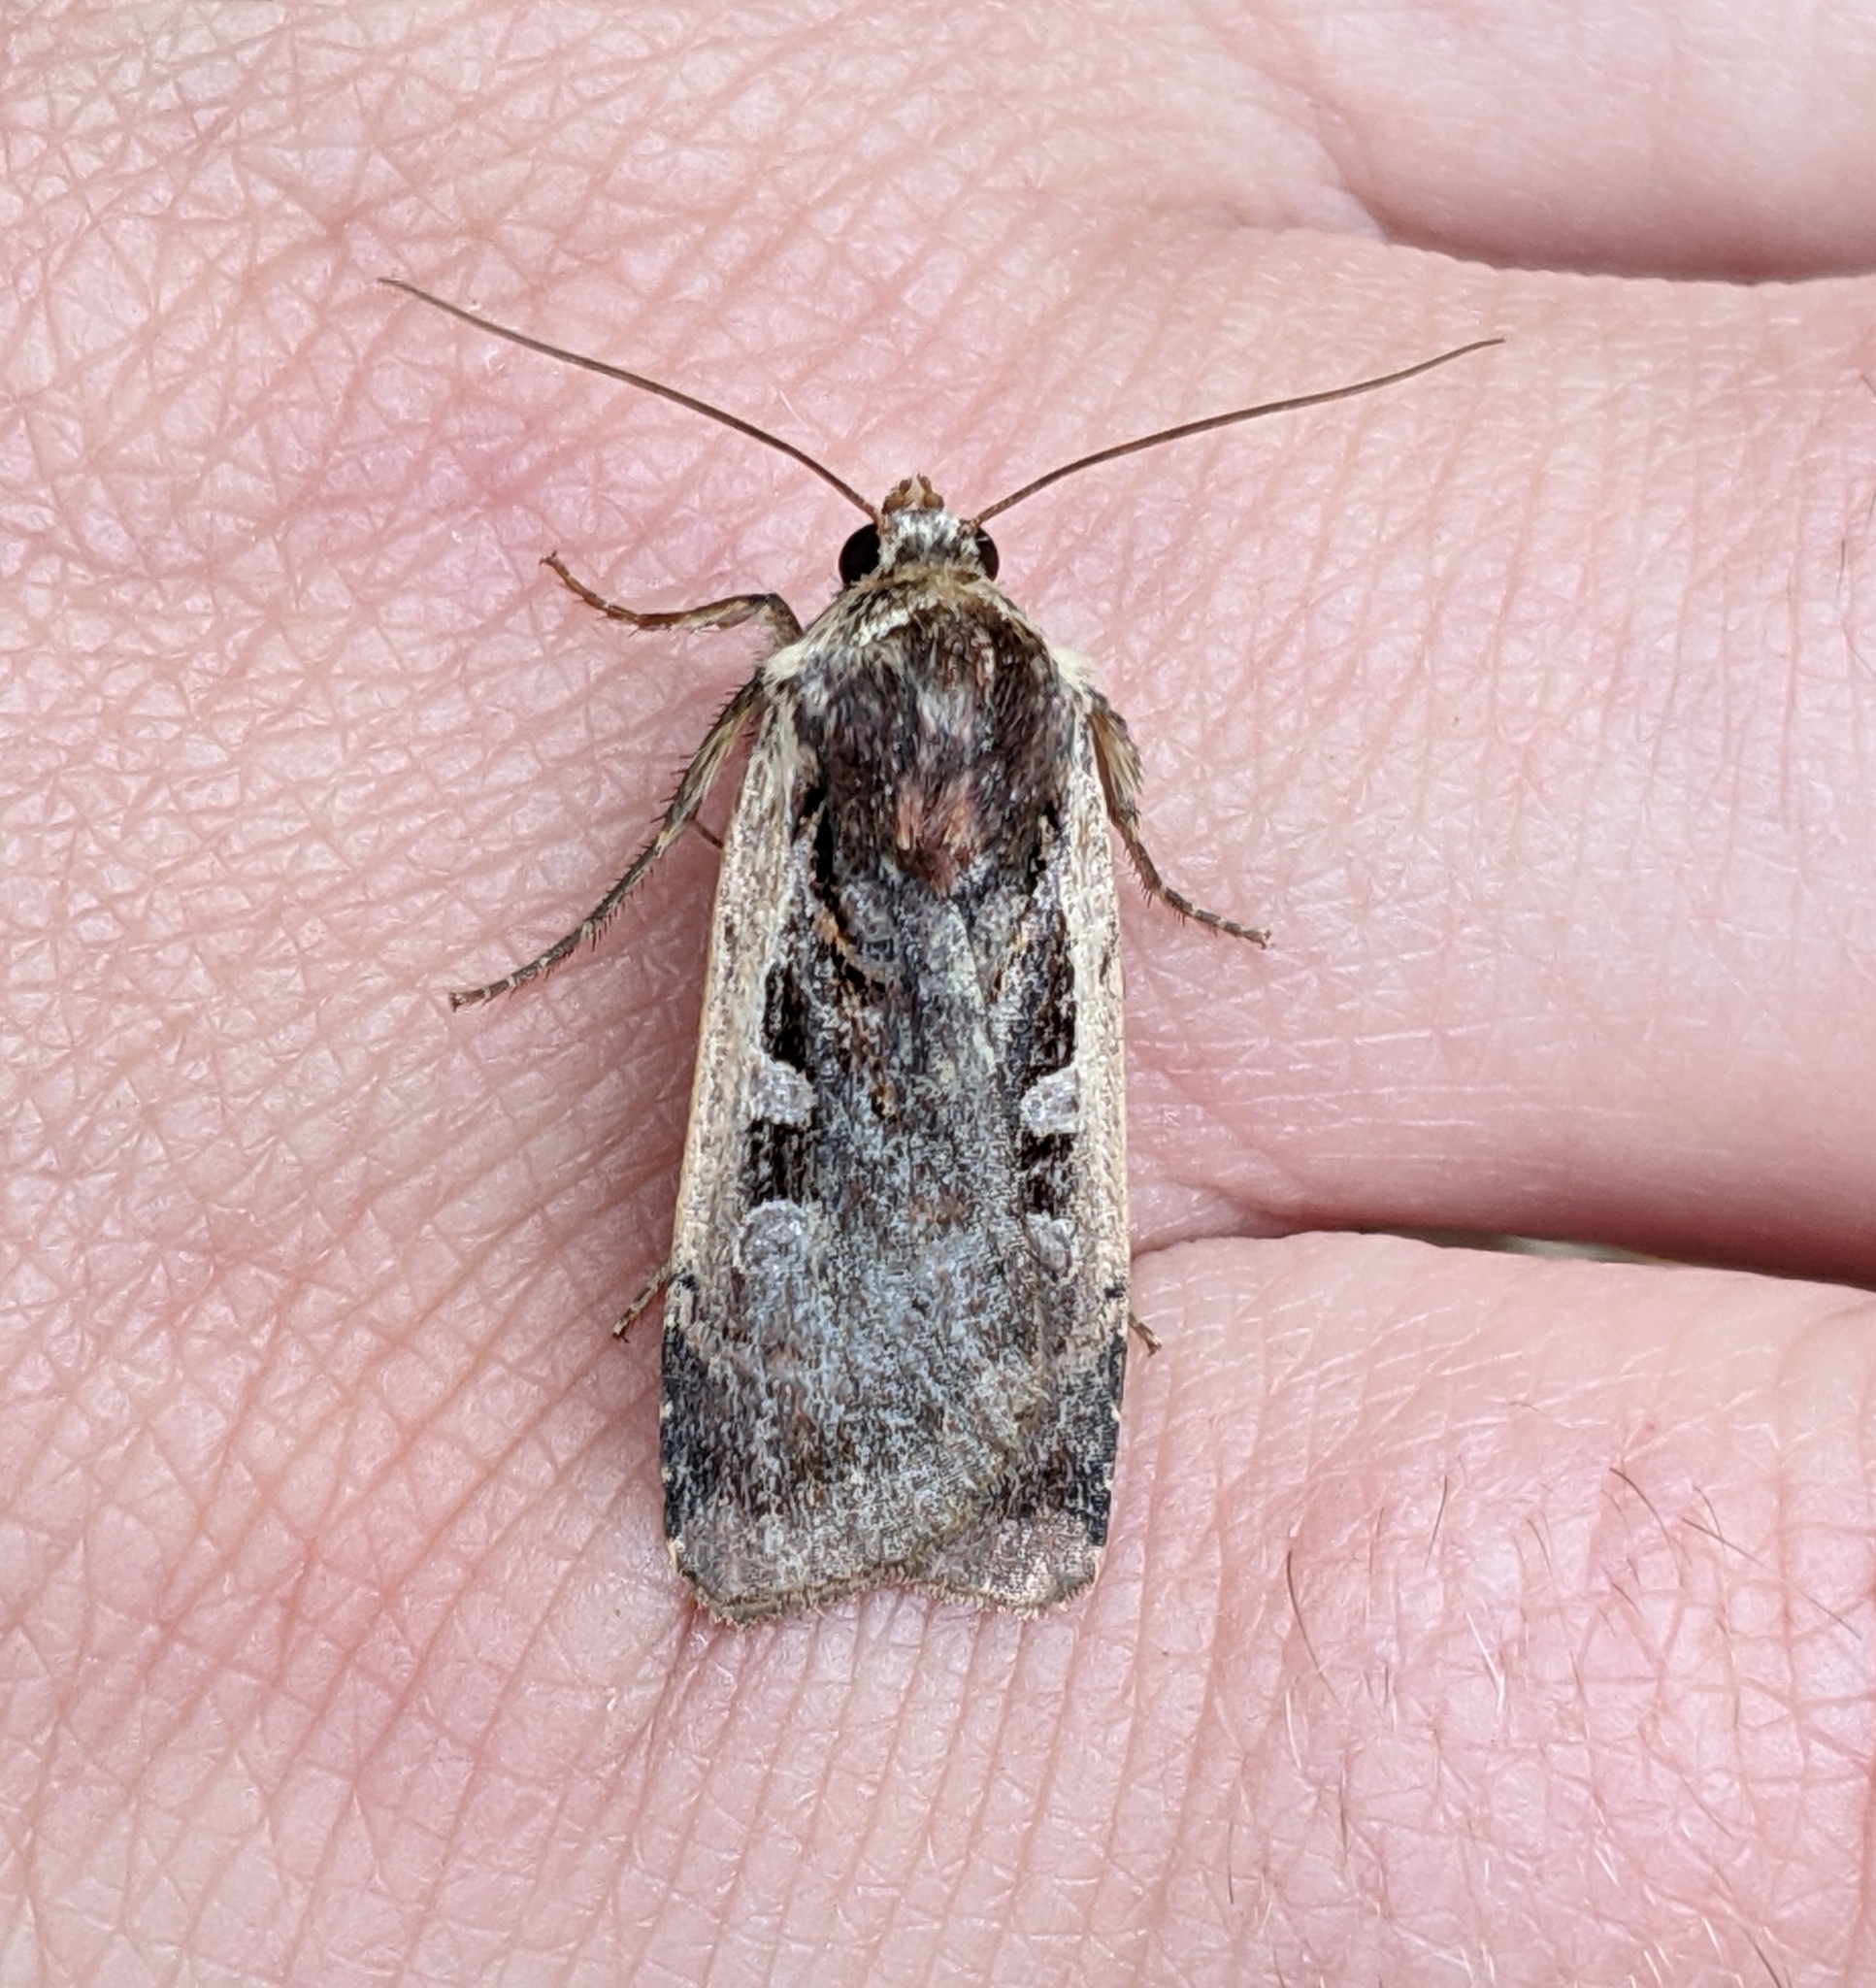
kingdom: Animalia
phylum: Arthropoda
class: Insecta
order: Lepidoptera
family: Noctuidae
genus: Parabagrotis
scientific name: Parabagrotis sulinaris
